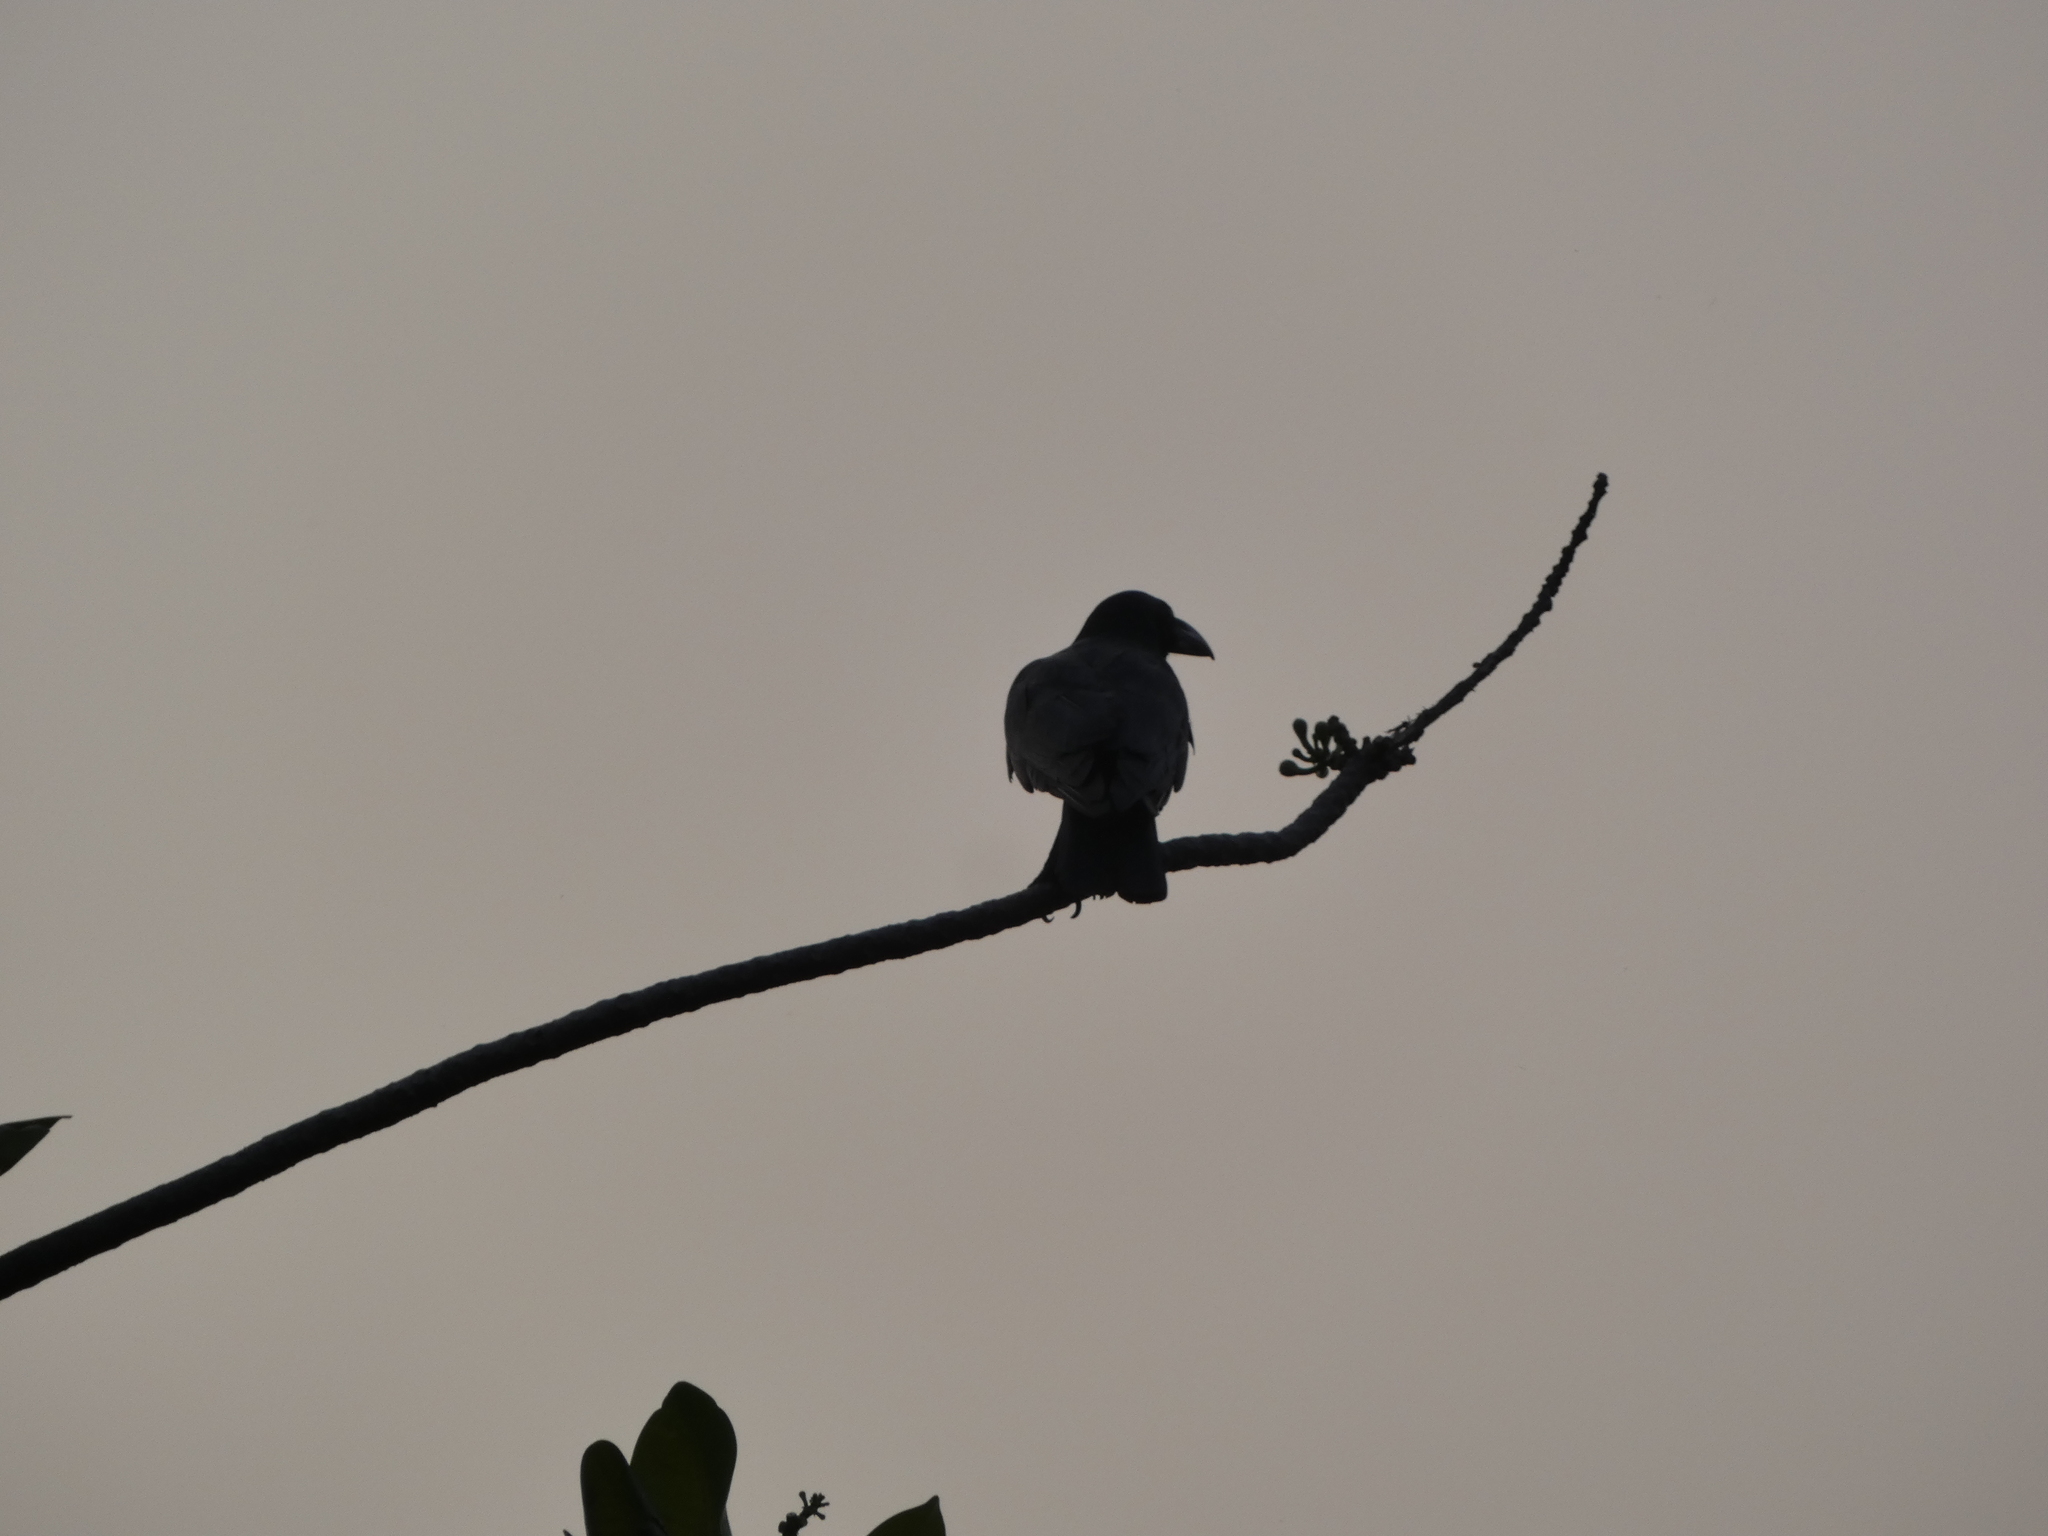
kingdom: Animalia
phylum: Chordata
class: Aves
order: Passeriformes
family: Corvidae
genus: Corvus
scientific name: Corvus macrorhynchos
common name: Large-billed crow
